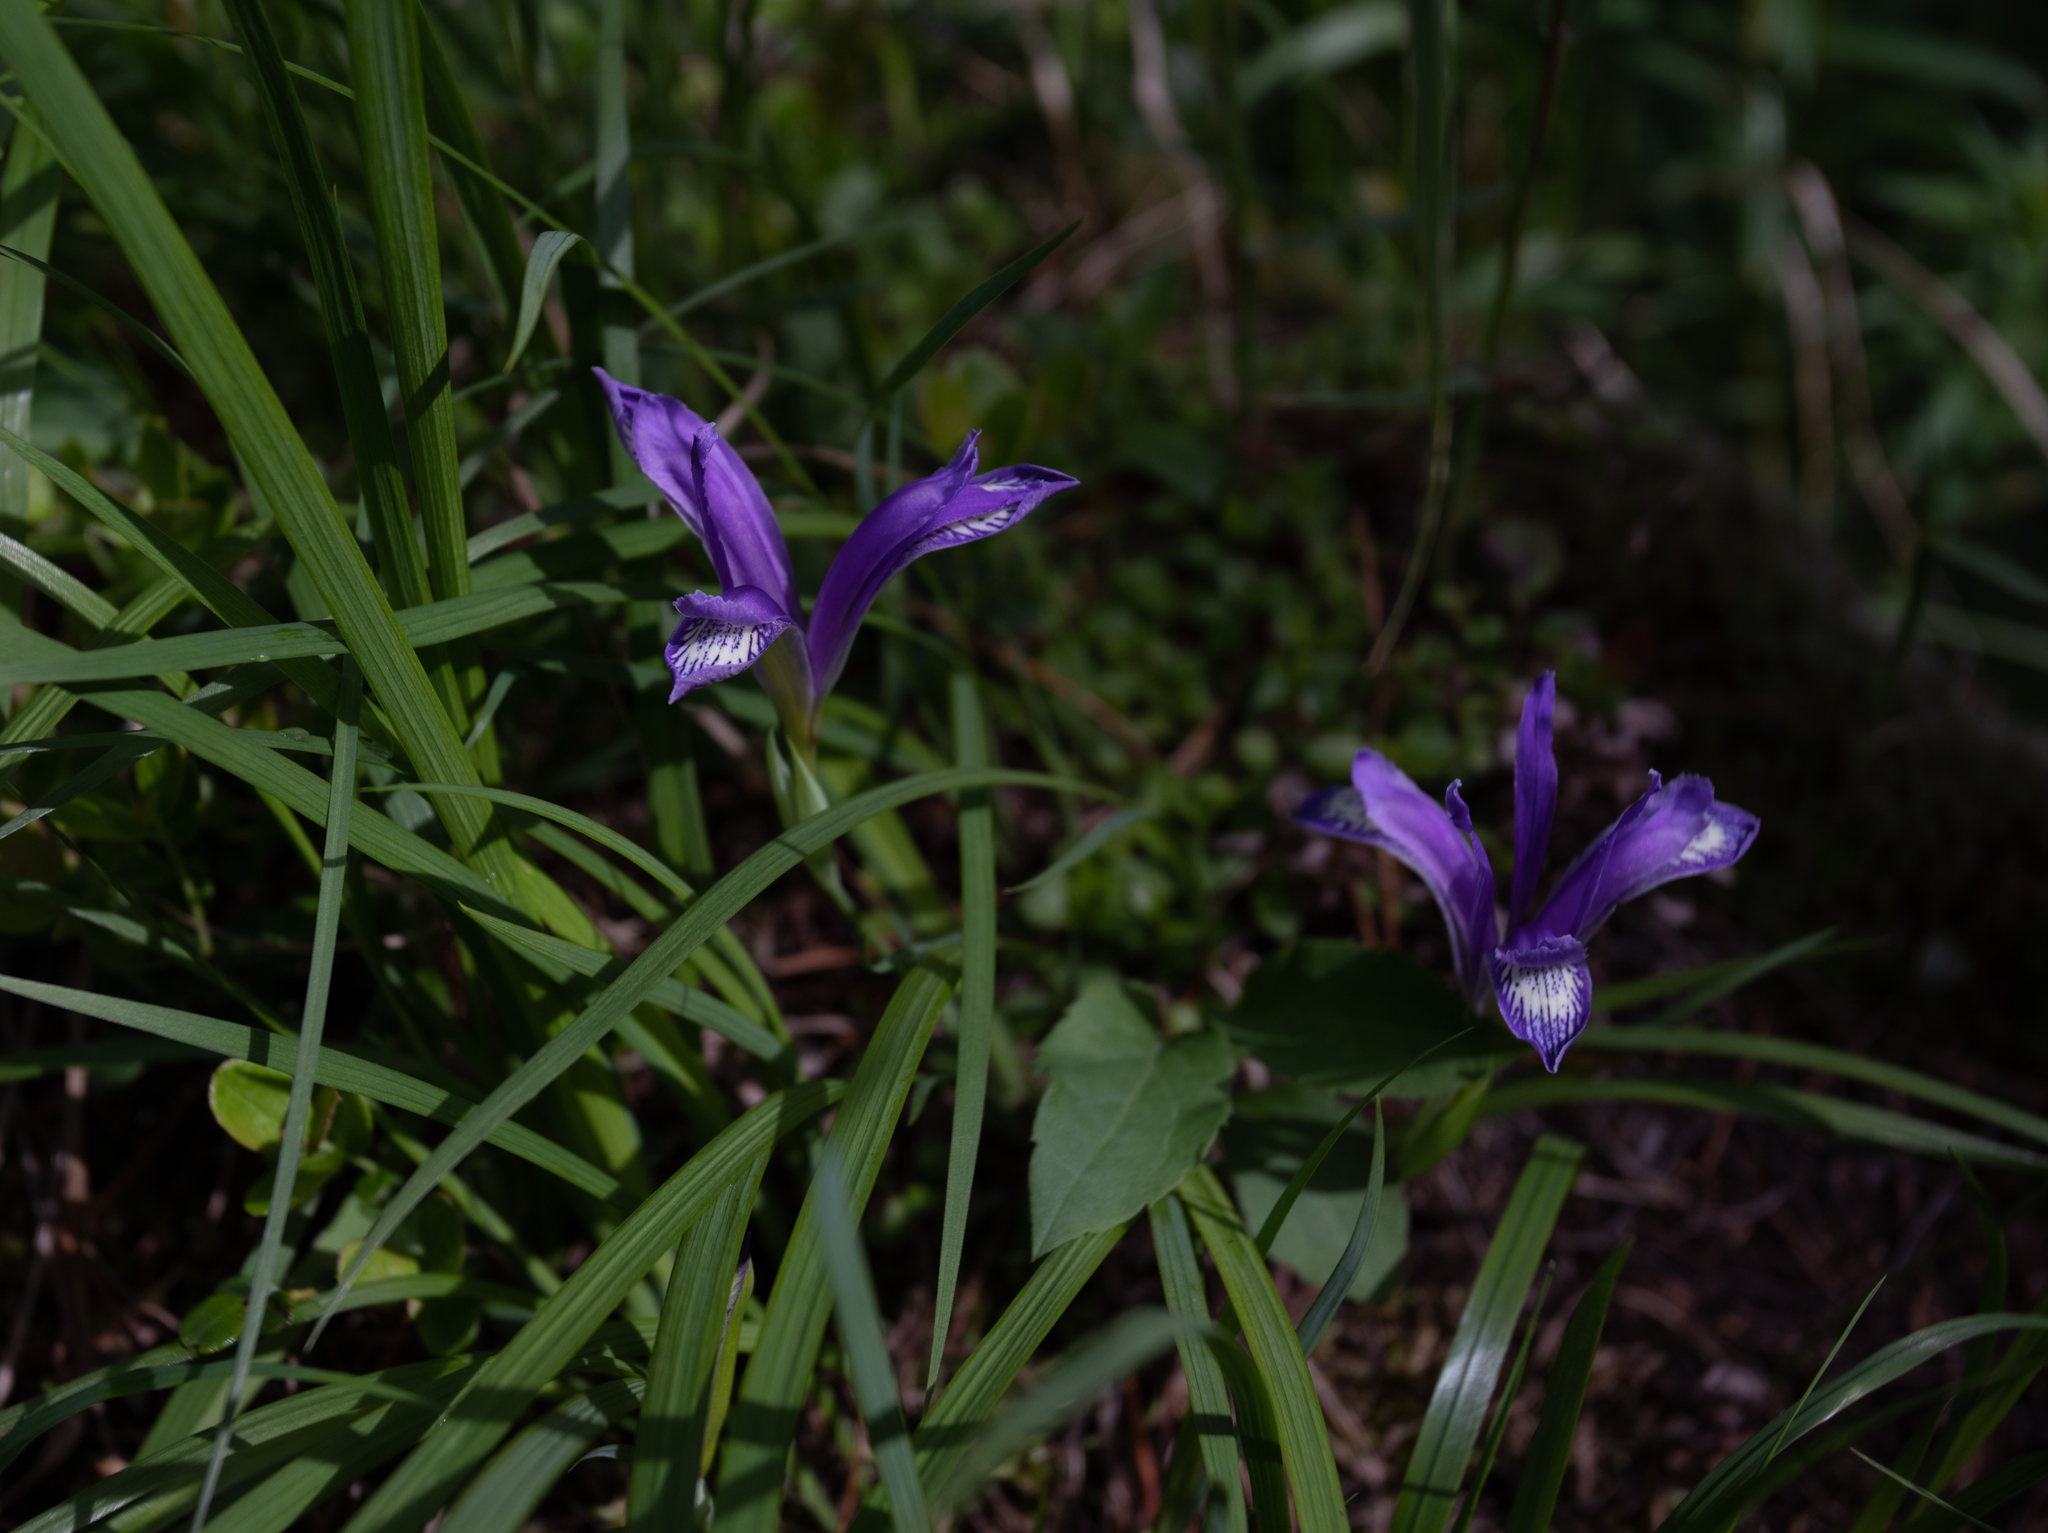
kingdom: Plantae
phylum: Tracheophyta
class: Liliopsida
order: Asparagales
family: Iridaceae
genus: Iris
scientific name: Iris ruthenica
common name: Purple-bract iris
